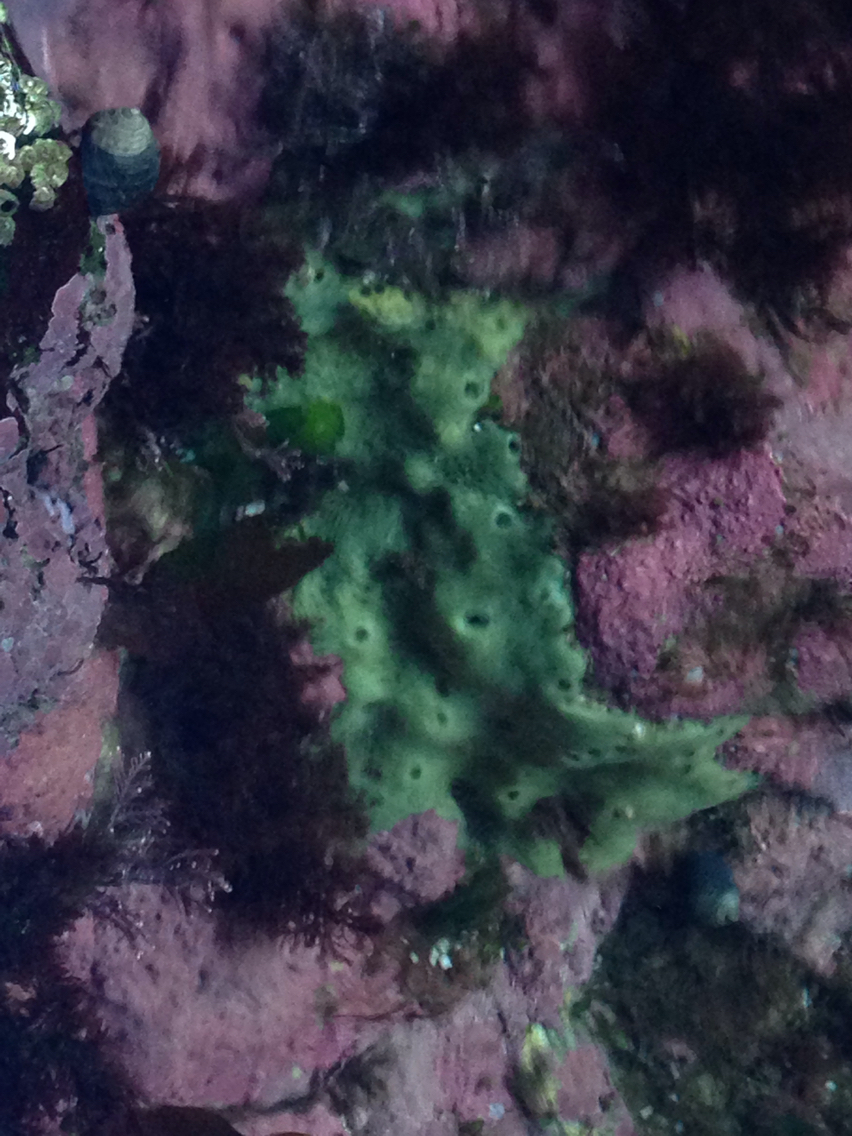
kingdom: Animalia
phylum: Porifera
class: Demospongiae
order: Suberitida
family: Halichondriidae
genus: Halichondria
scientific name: Halichondria panicea
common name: Breadcrumb sponge
